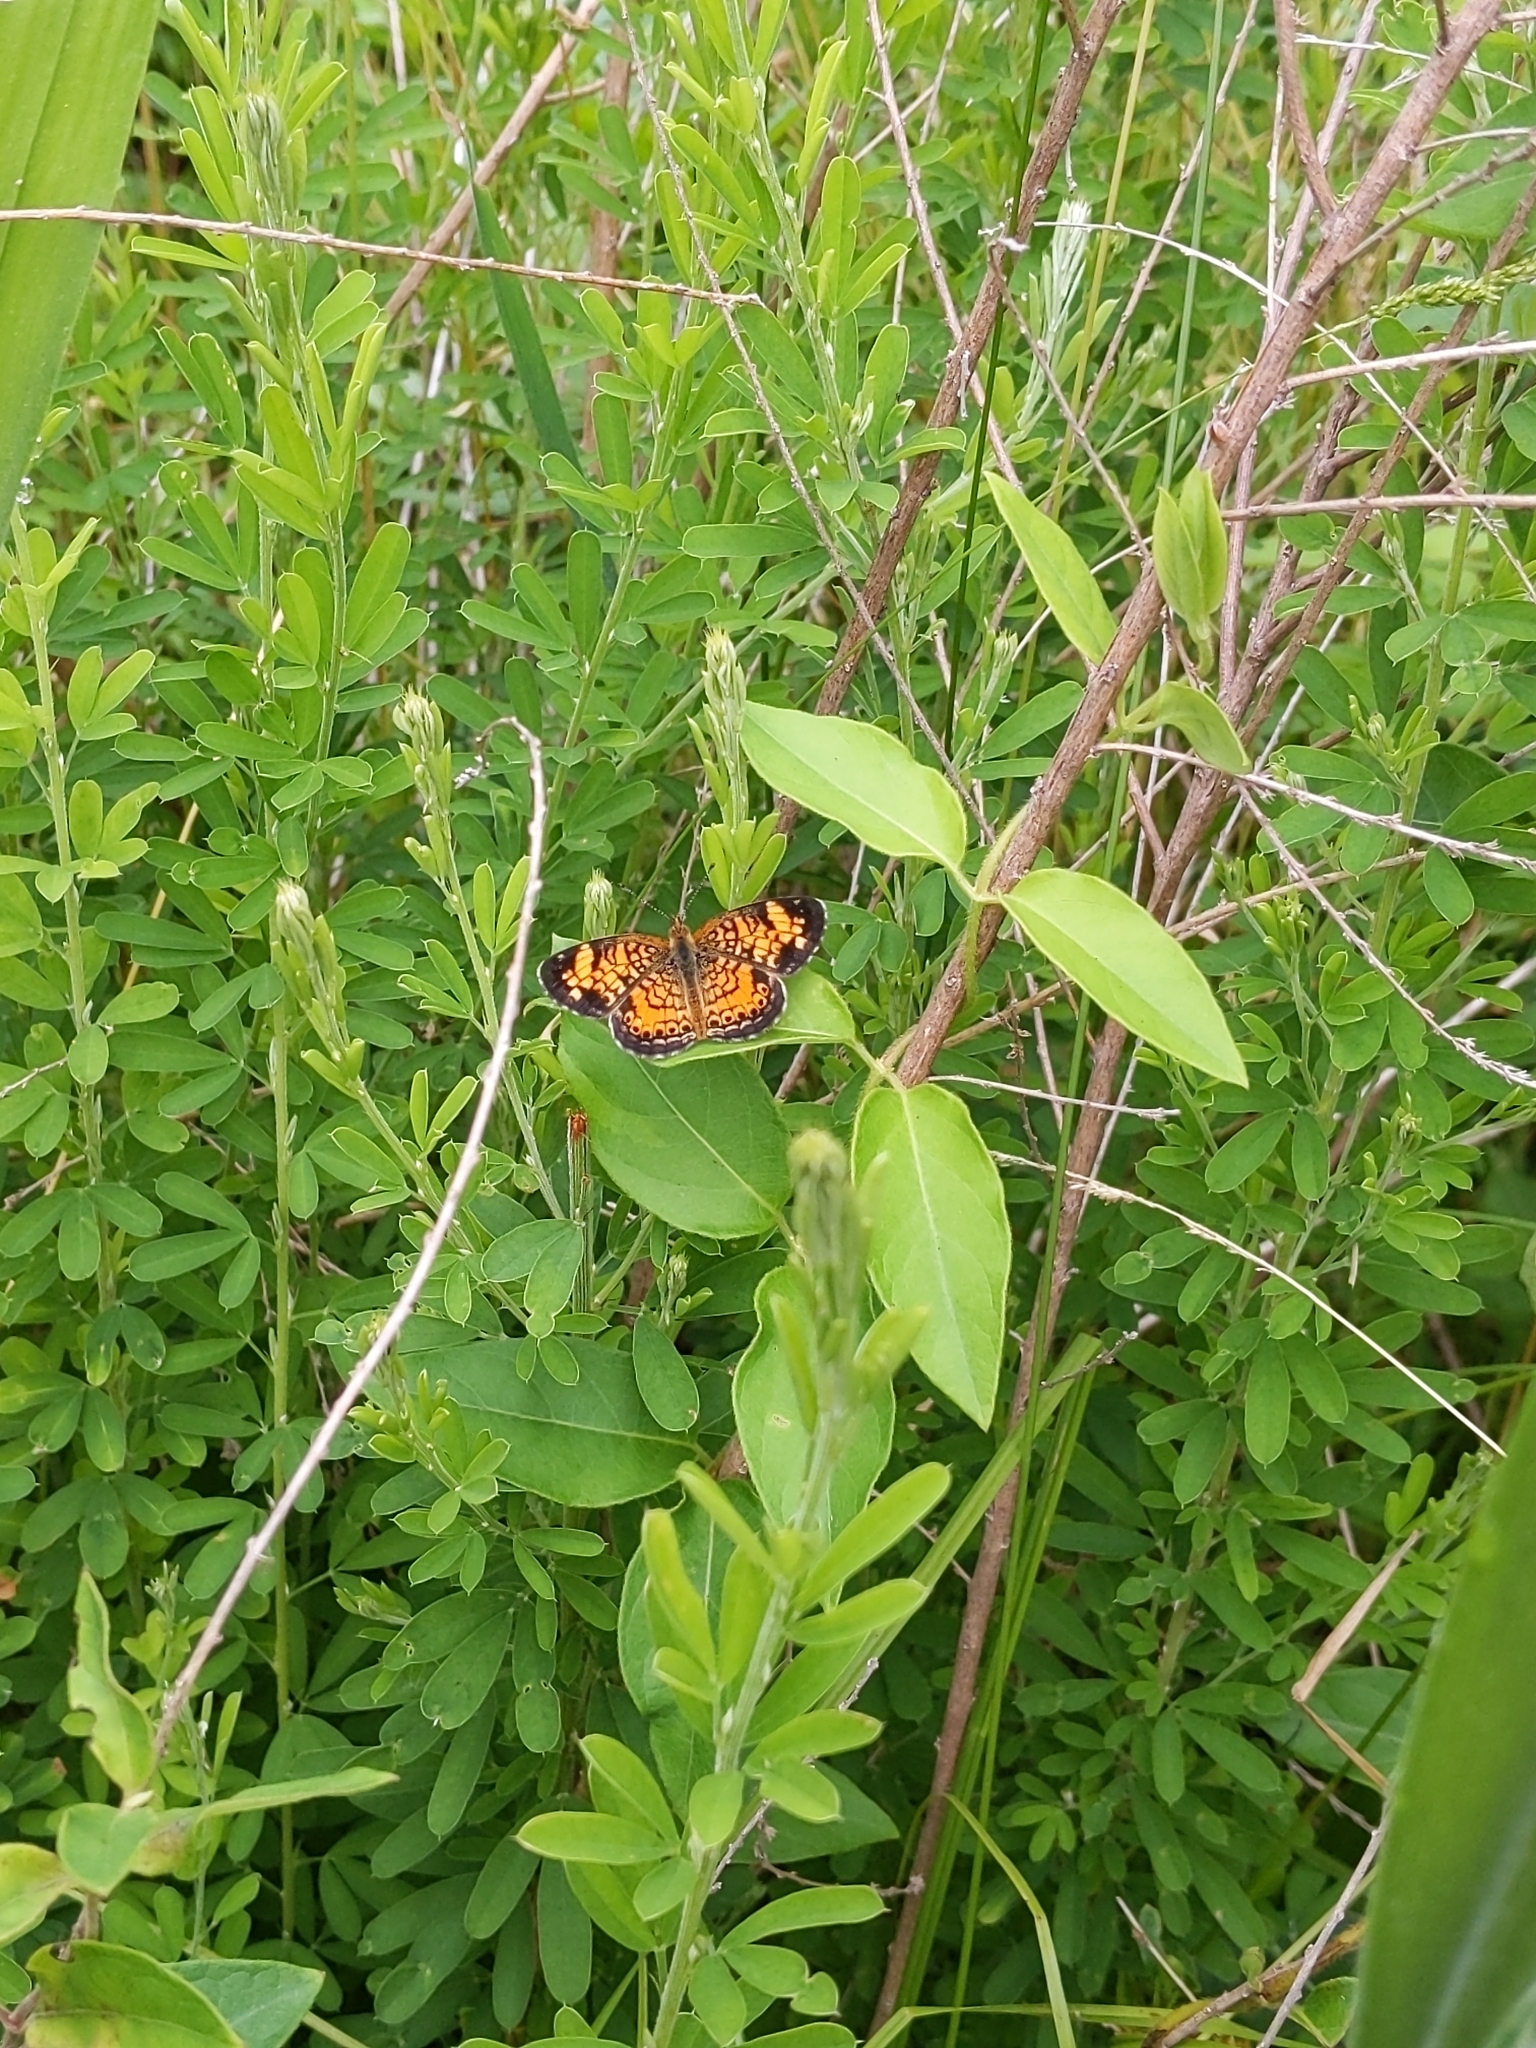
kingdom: Animalia
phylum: Arthropoda
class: Insecta
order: Lepidoptera
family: Nymphalidae
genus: Phyciodes
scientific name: Phyciodes tharos
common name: Pearl crescent
